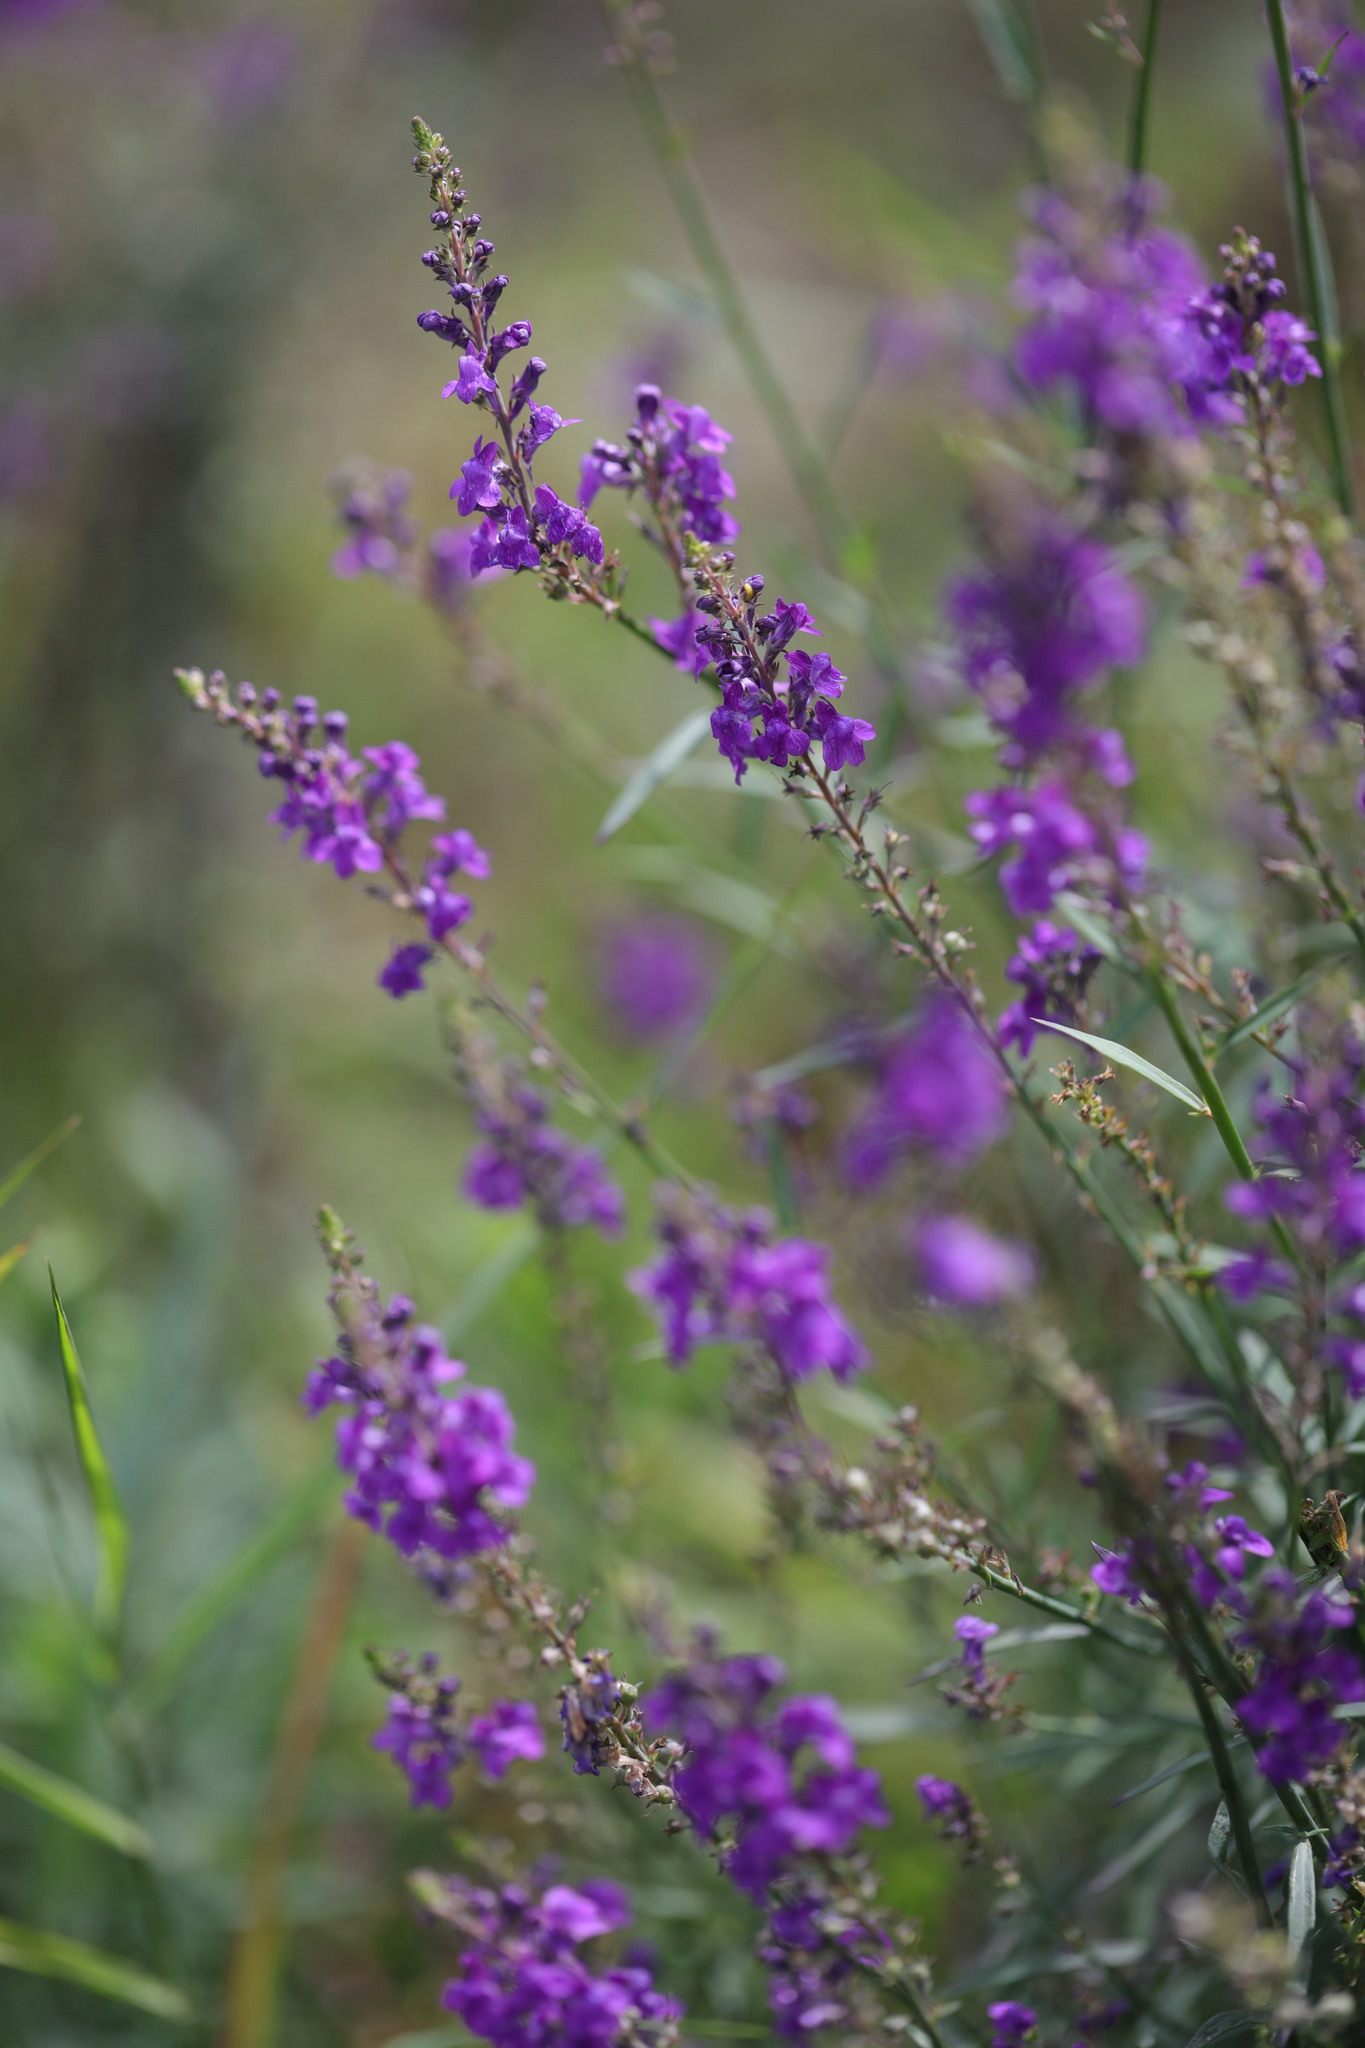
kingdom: Plantae
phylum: Tracheophyta
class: Magnoliopsida
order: Lamiales
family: Plantaginaceae
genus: Linaria
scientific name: Linaria purpurea
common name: Purple toadflax
